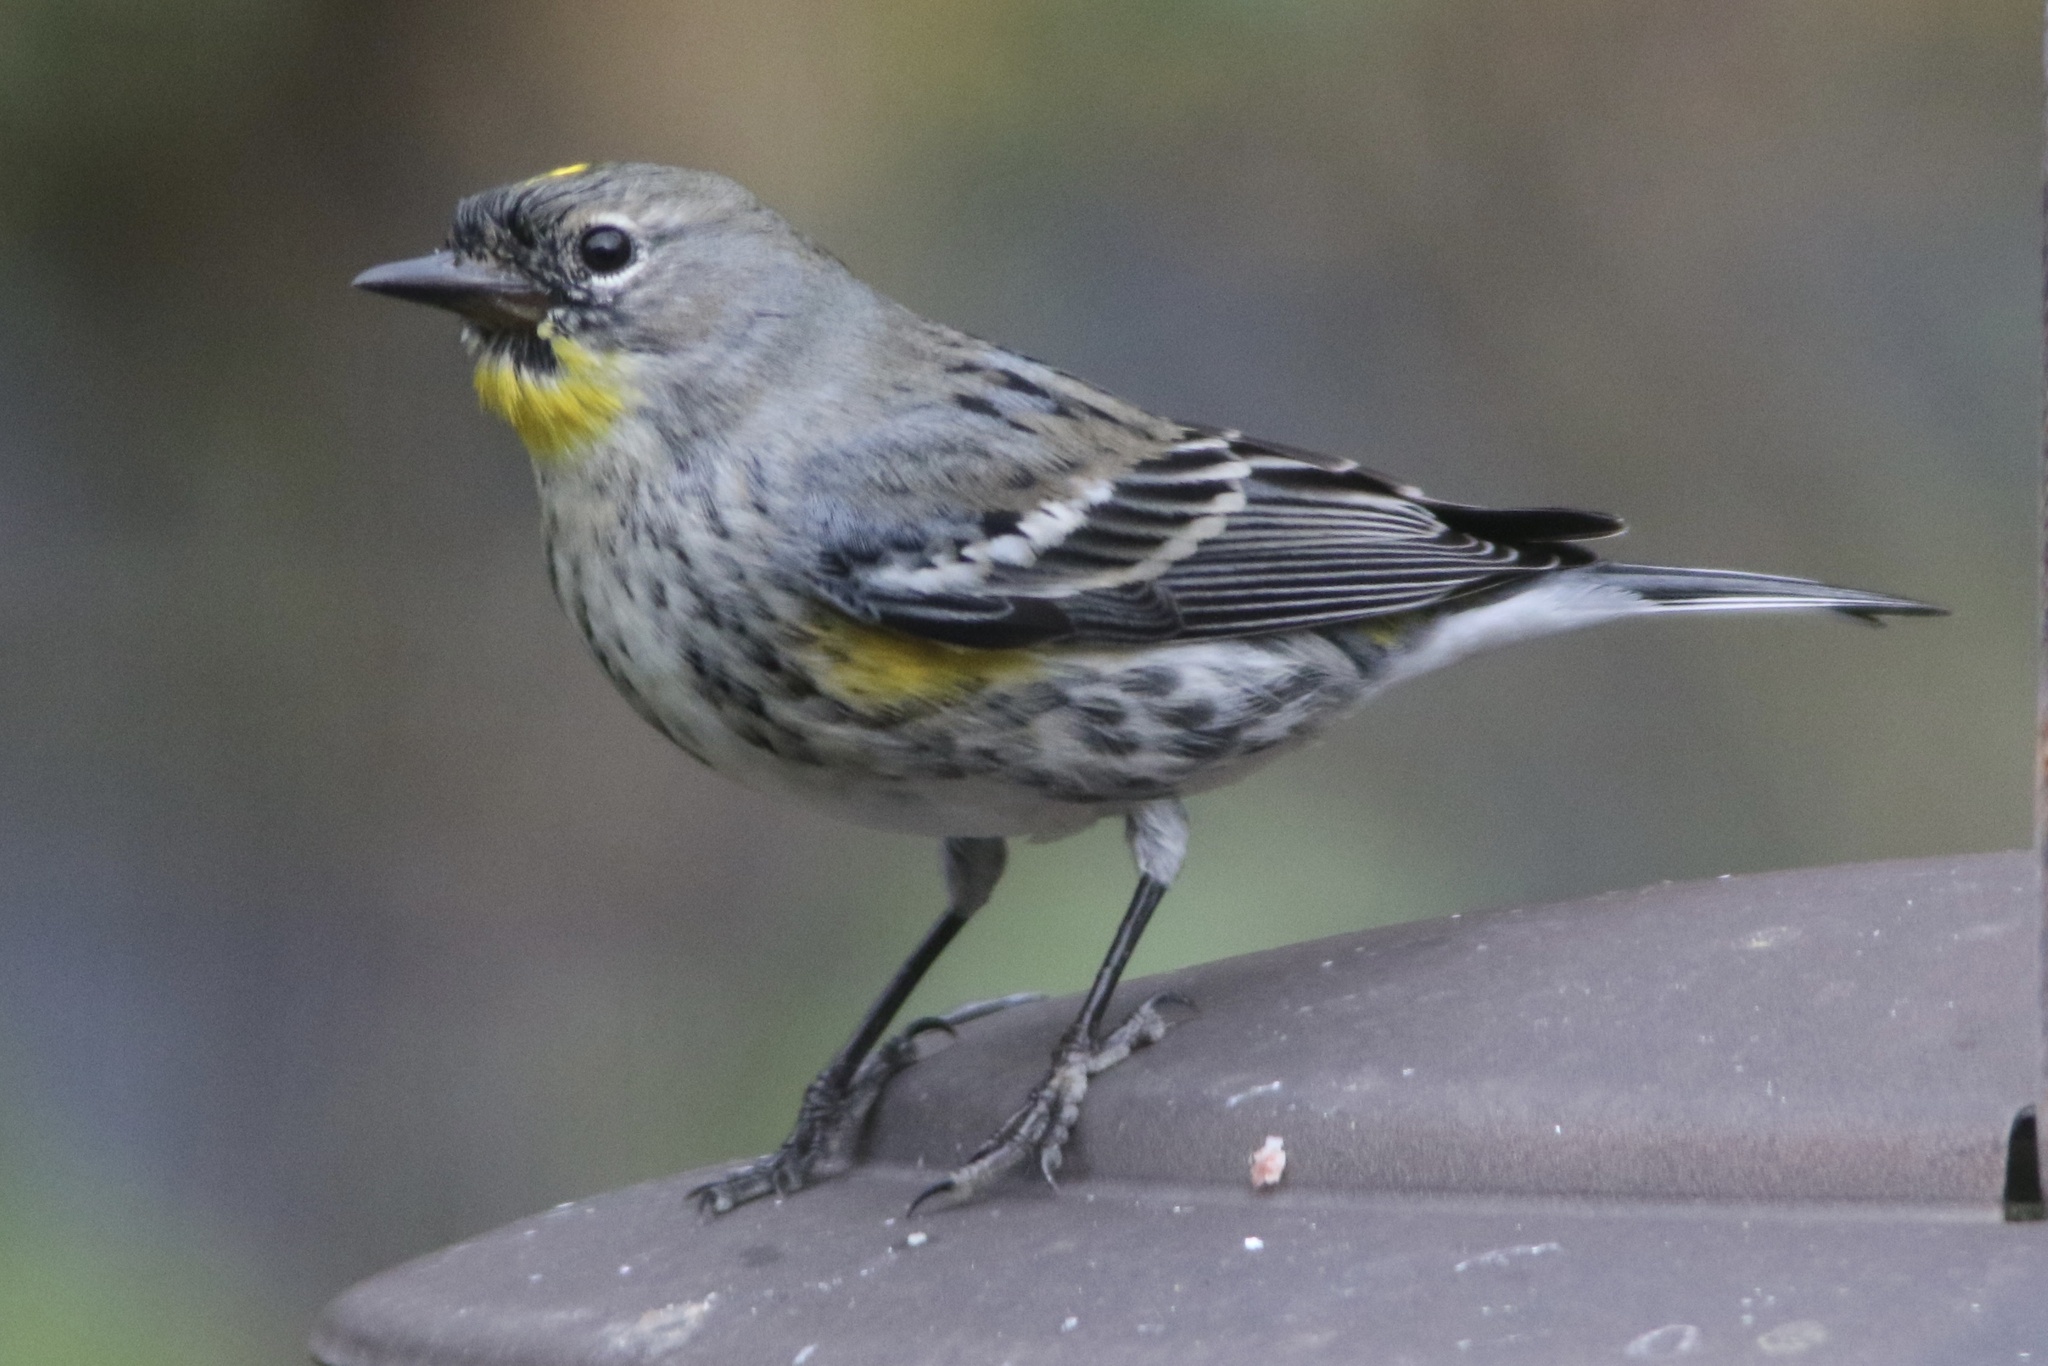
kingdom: Animalia
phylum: Chordata
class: Aves
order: Passeriformes
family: Parulidae
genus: Setophaga
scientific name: Setophaga coronata
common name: Myrtle warbler
